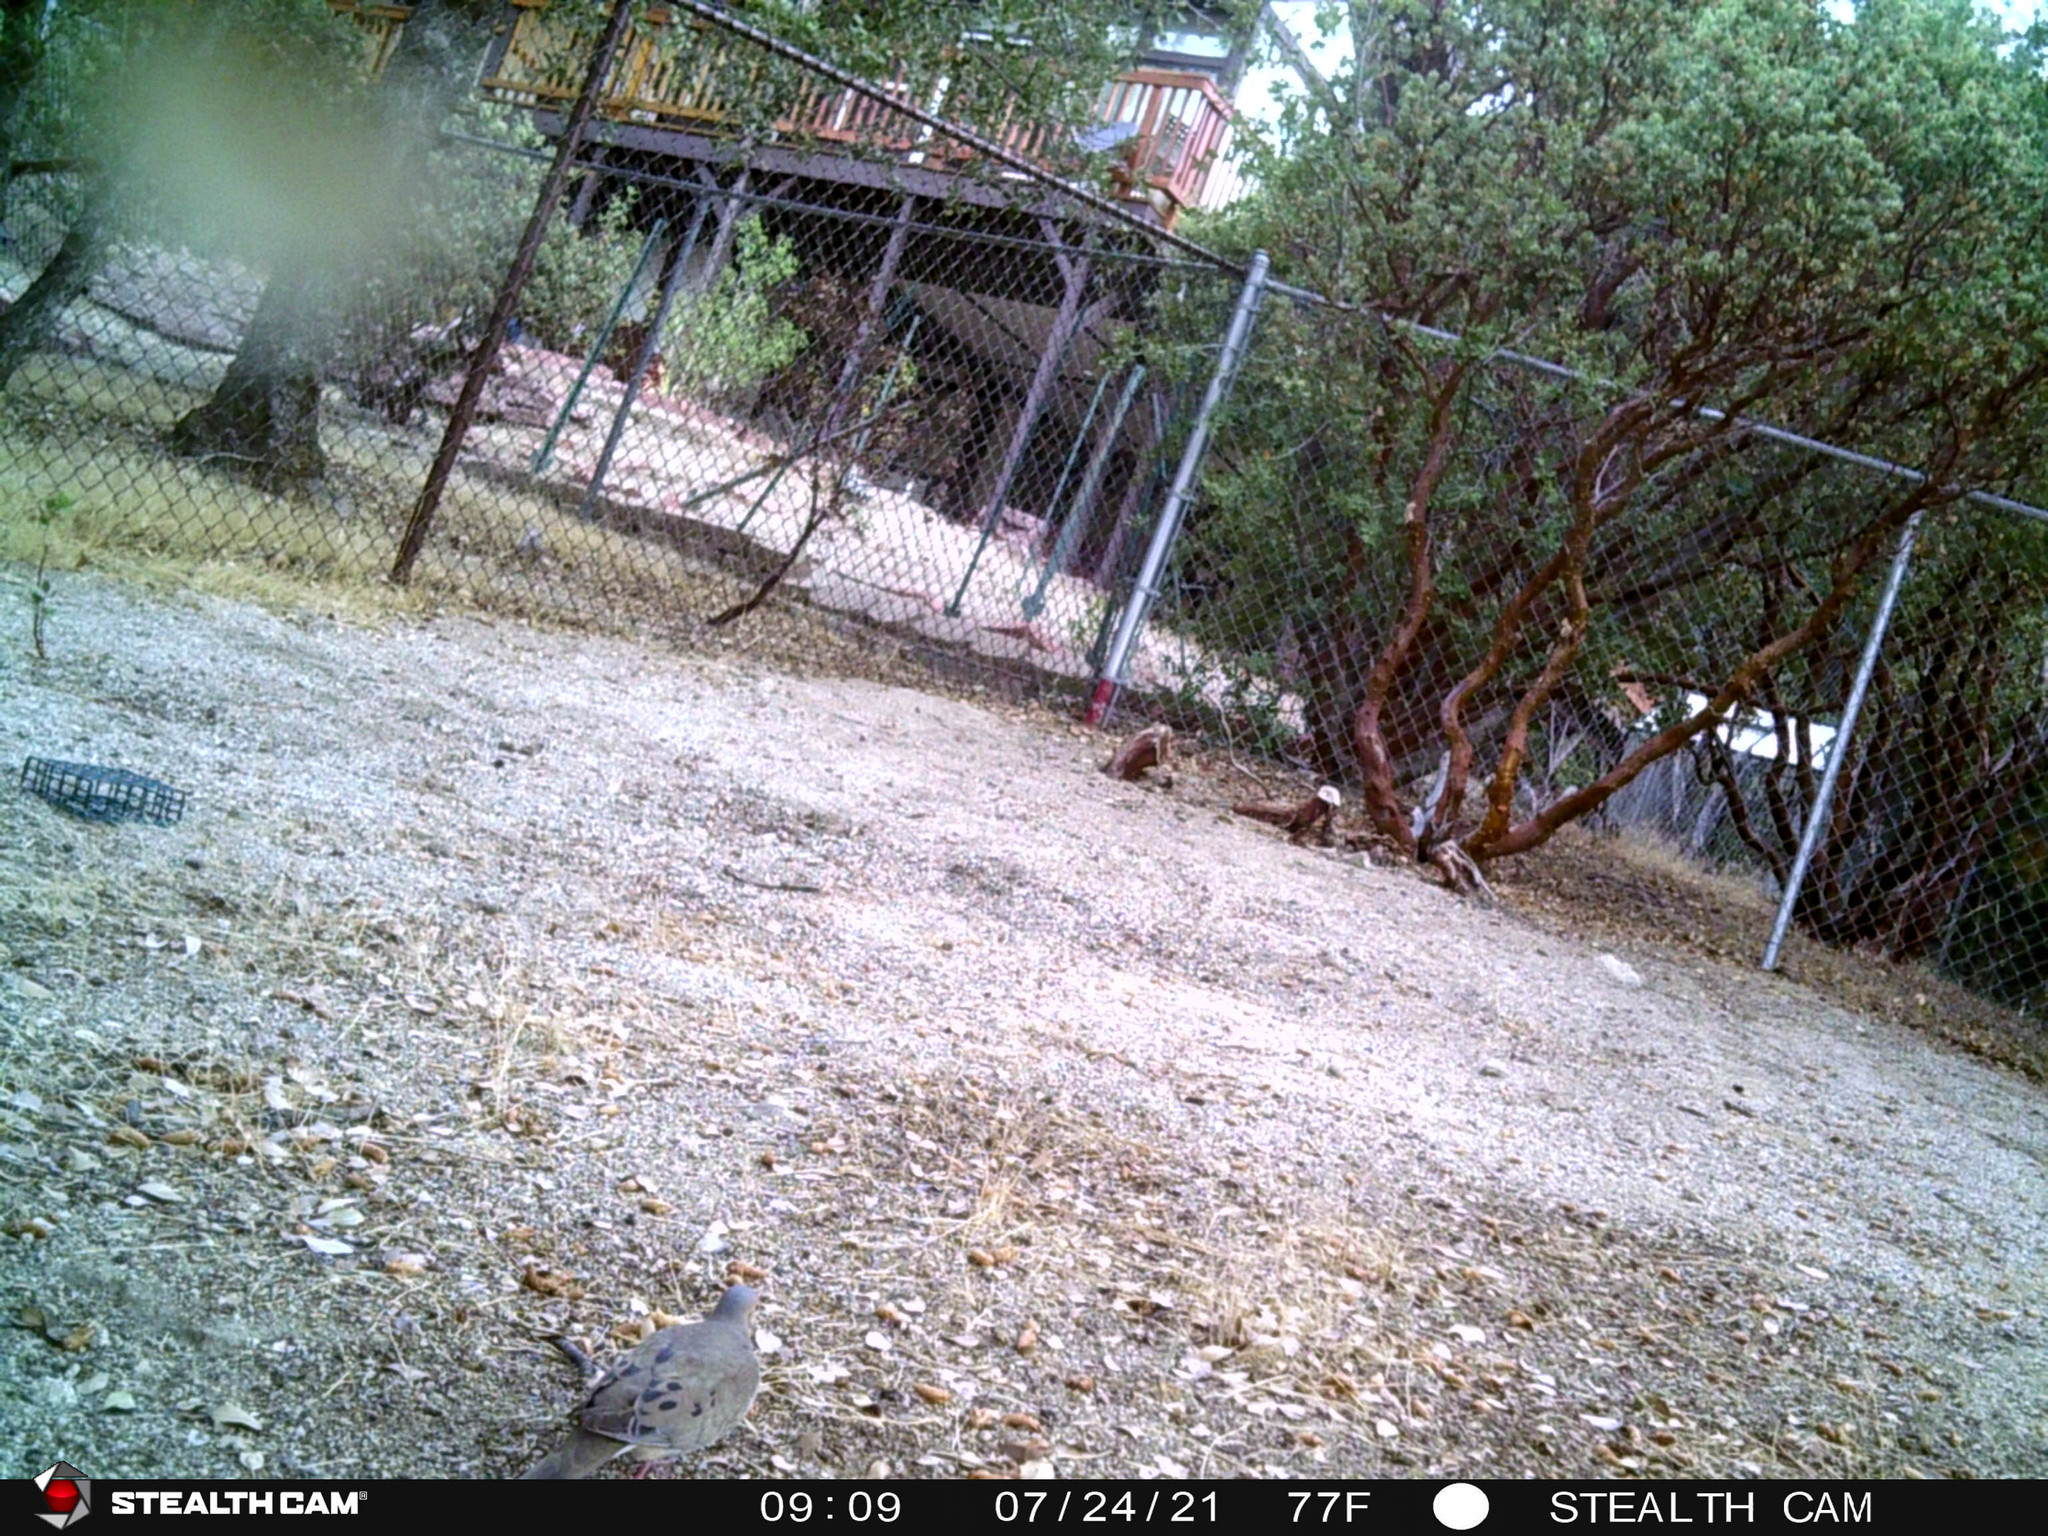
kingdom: Animalia
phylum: Chordata
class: Aves
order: Columbiformes
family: Columbidae
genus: Zenaida
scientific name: Zenaida macroura
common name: Mourning dove
